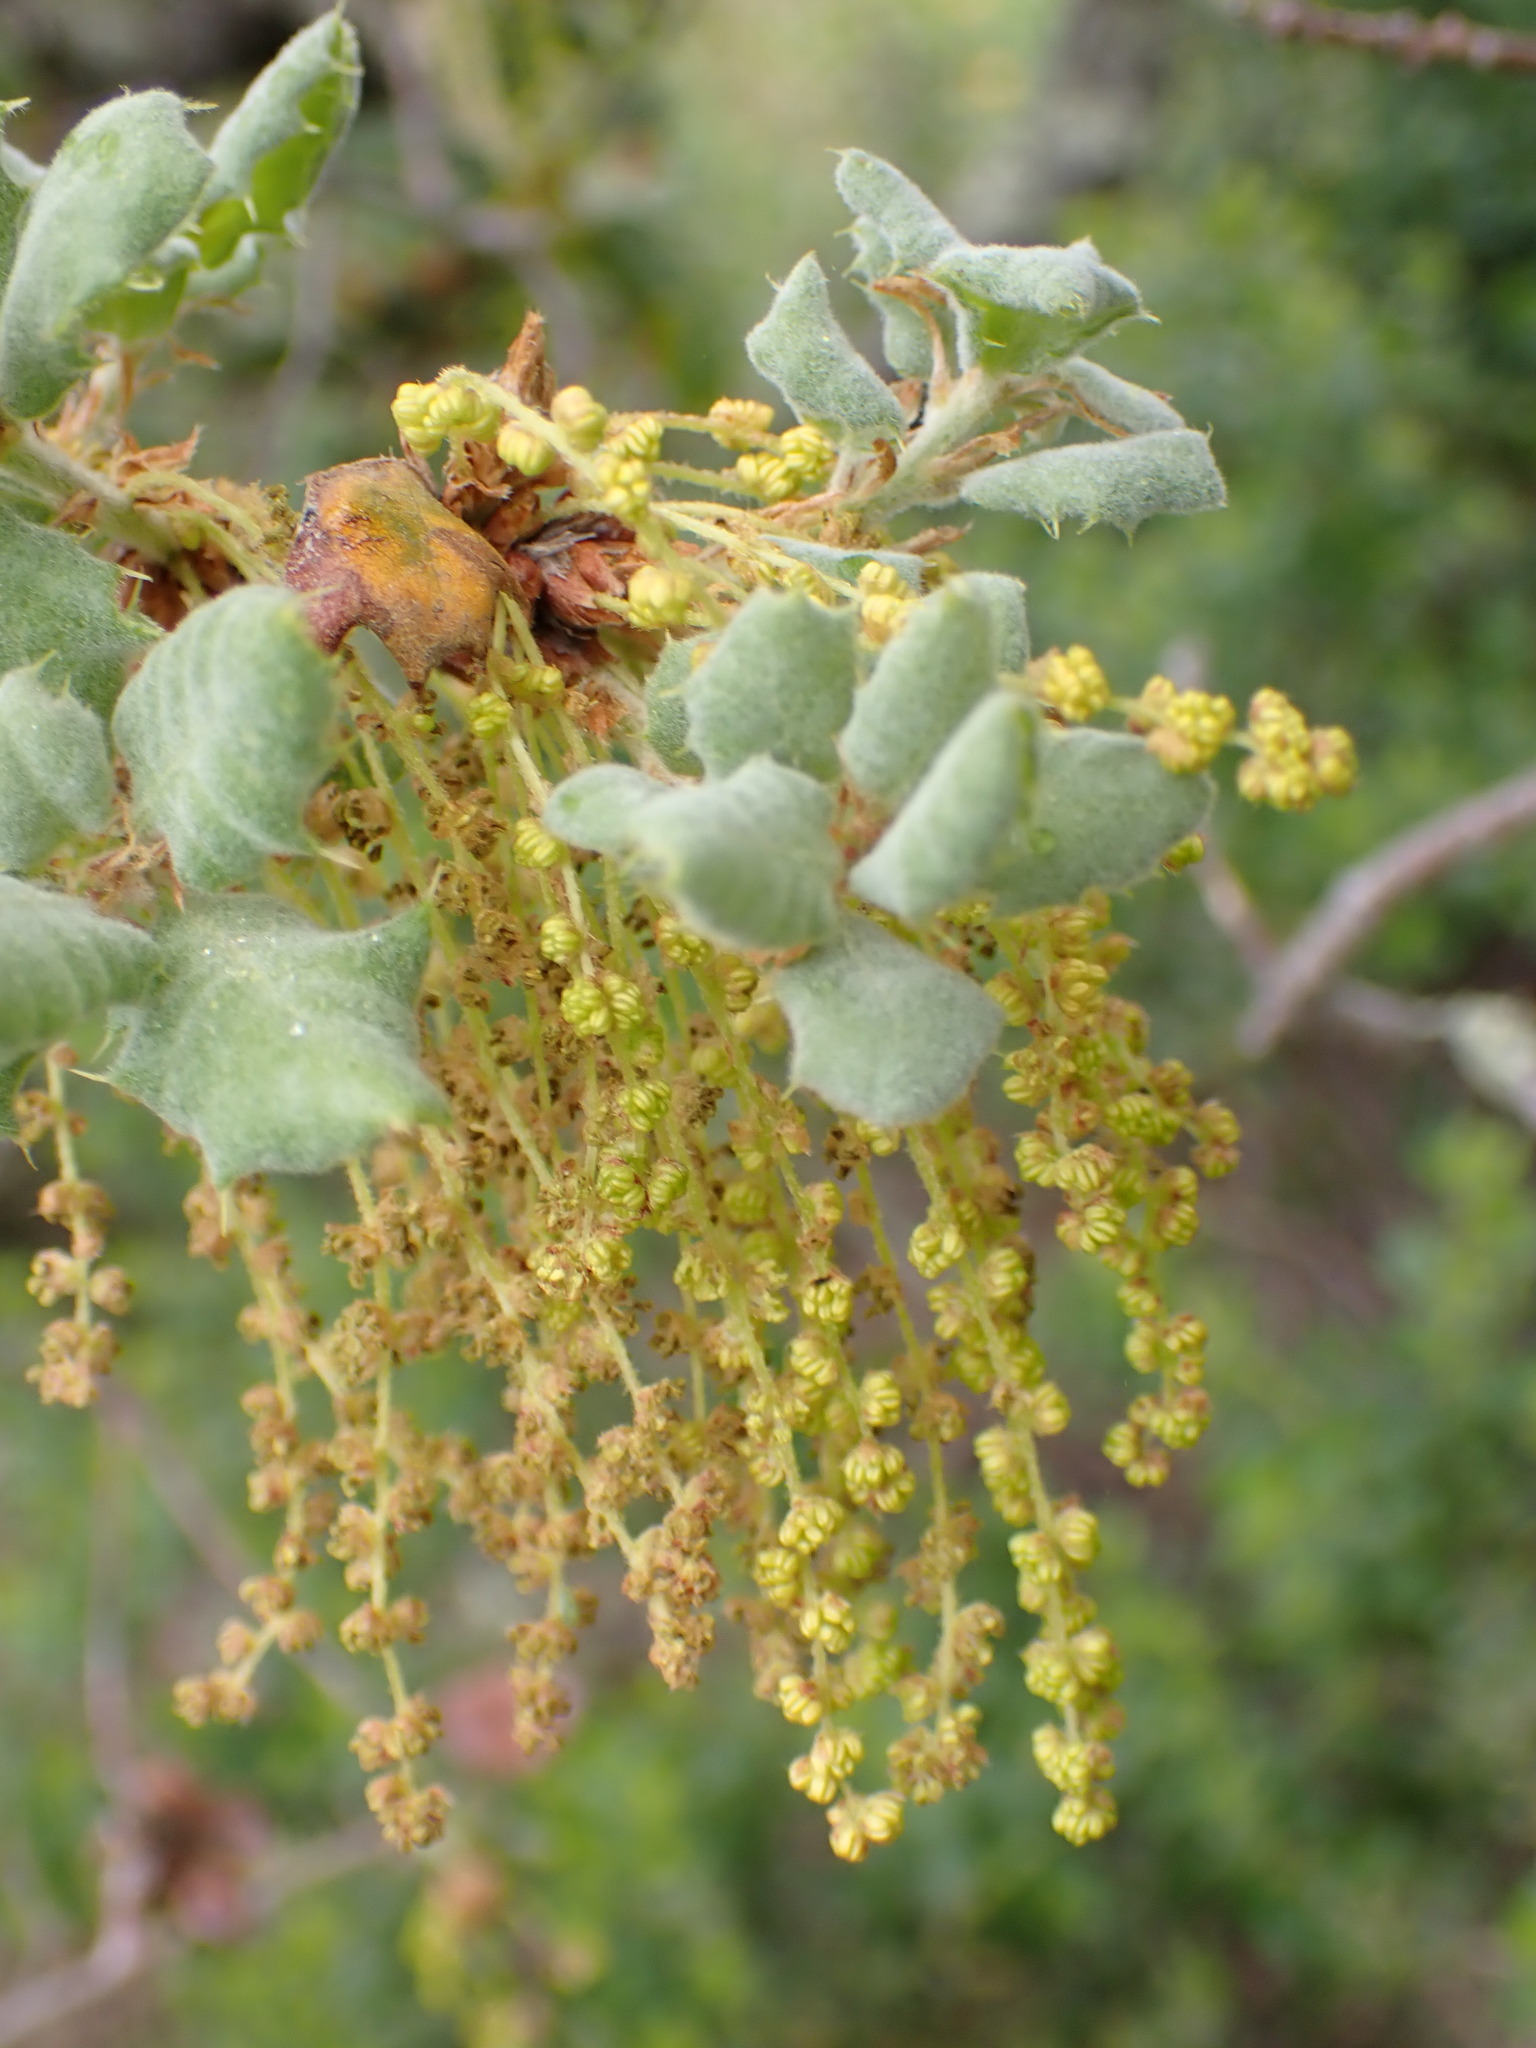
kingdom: Plantae
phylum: Tracheophyta
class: Magnoliopsida
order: Fagales
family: Fagaceae
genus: Quercus
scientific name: Quercus durata
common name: Leather oak
